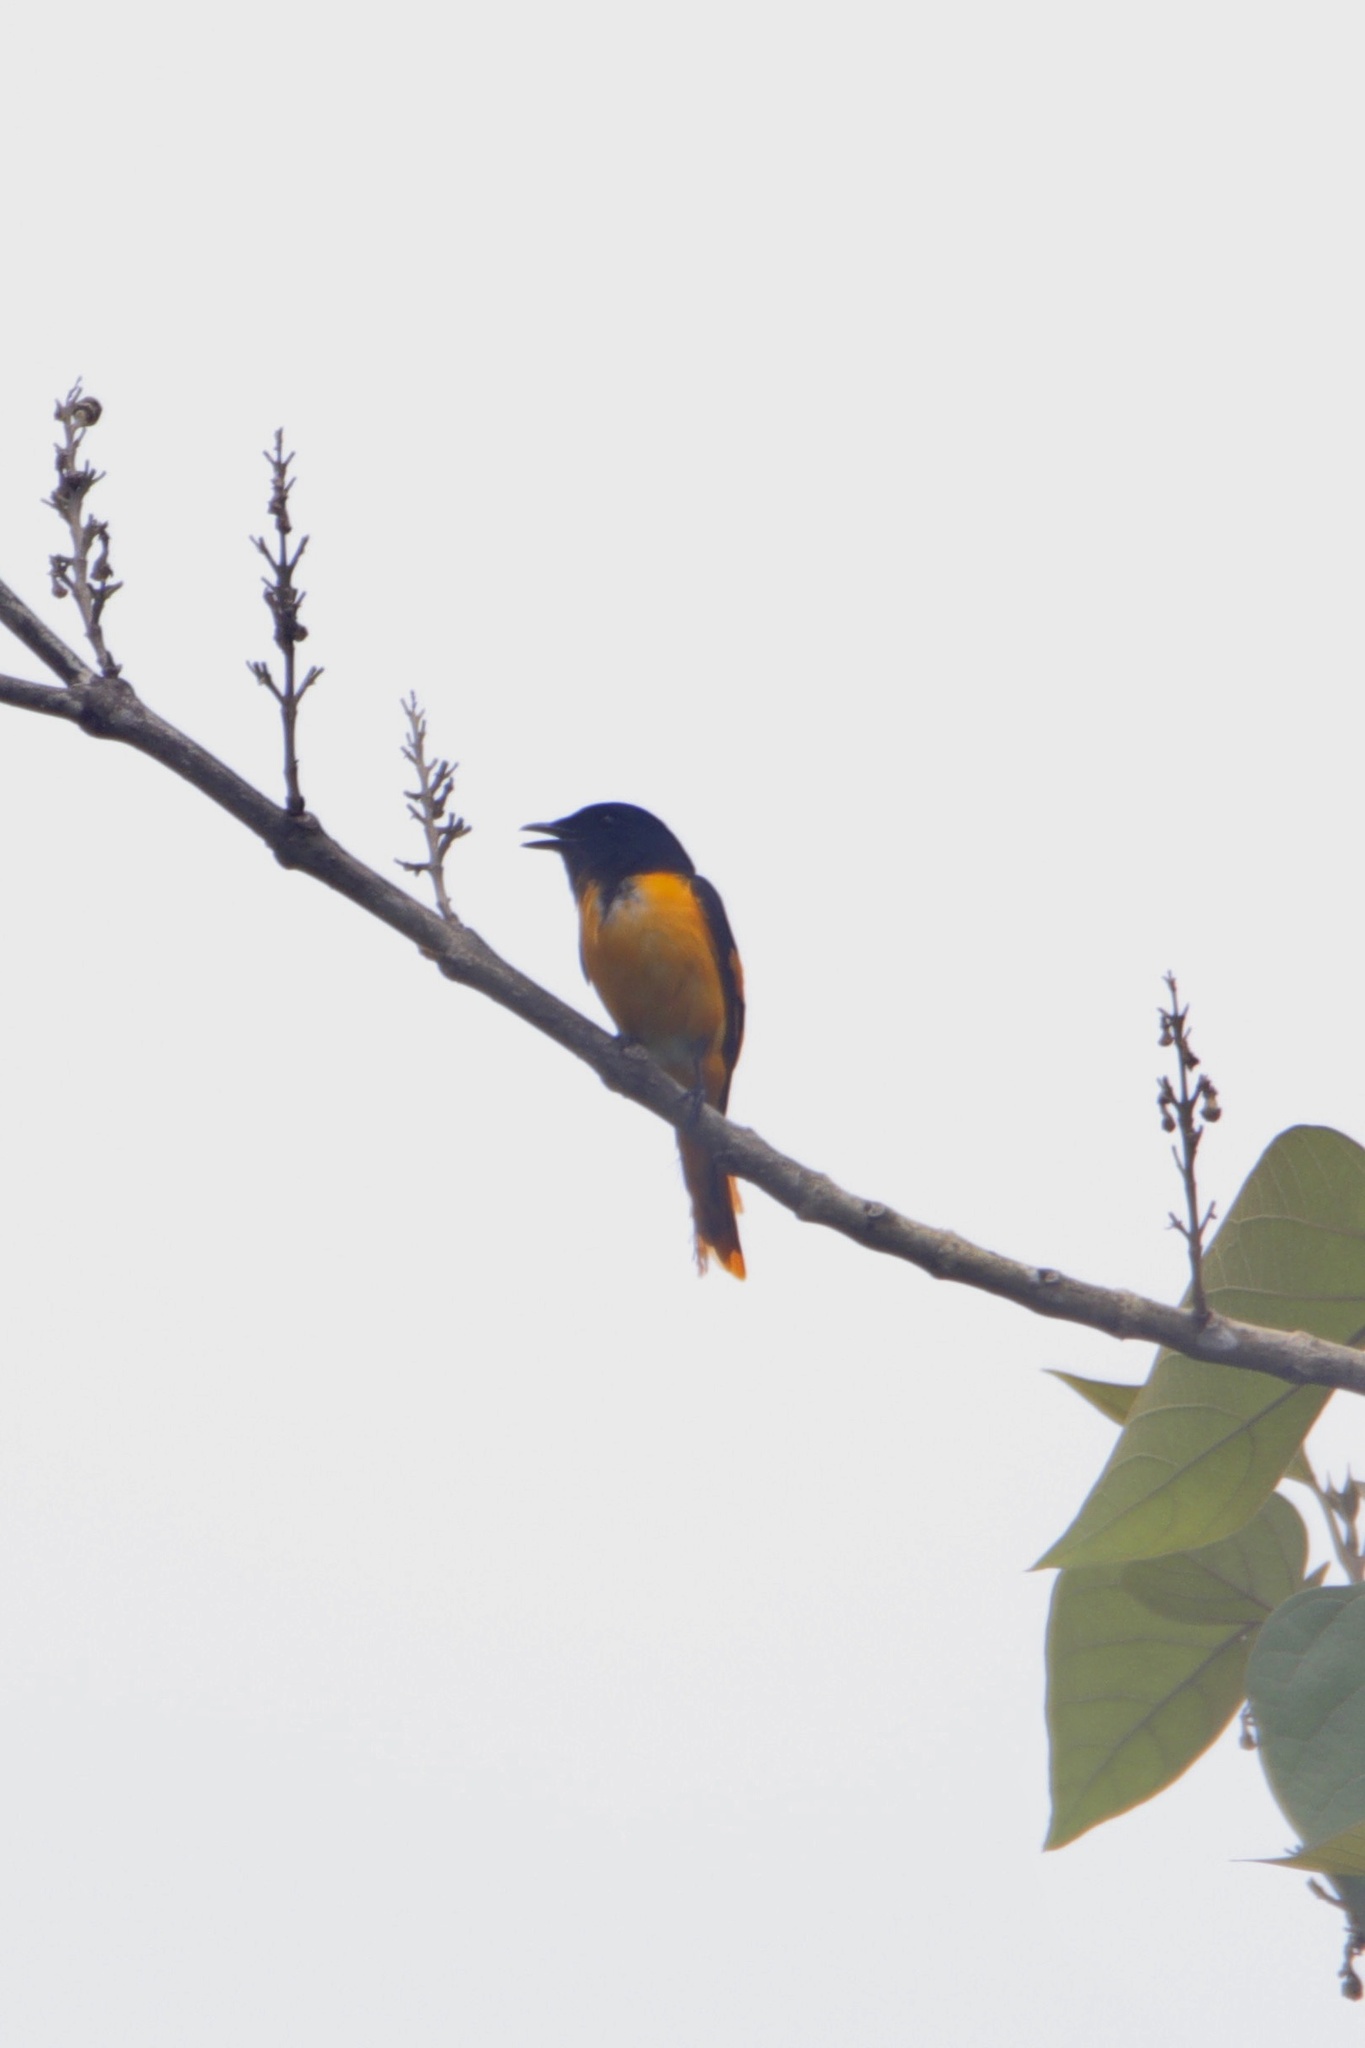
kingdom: Animalia
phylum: Chordata
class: Aves
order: Passeriformes
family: Campephagidae
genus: Pericrocotus
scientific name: Pericrocotus speciosus
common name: Scarlet minivet
